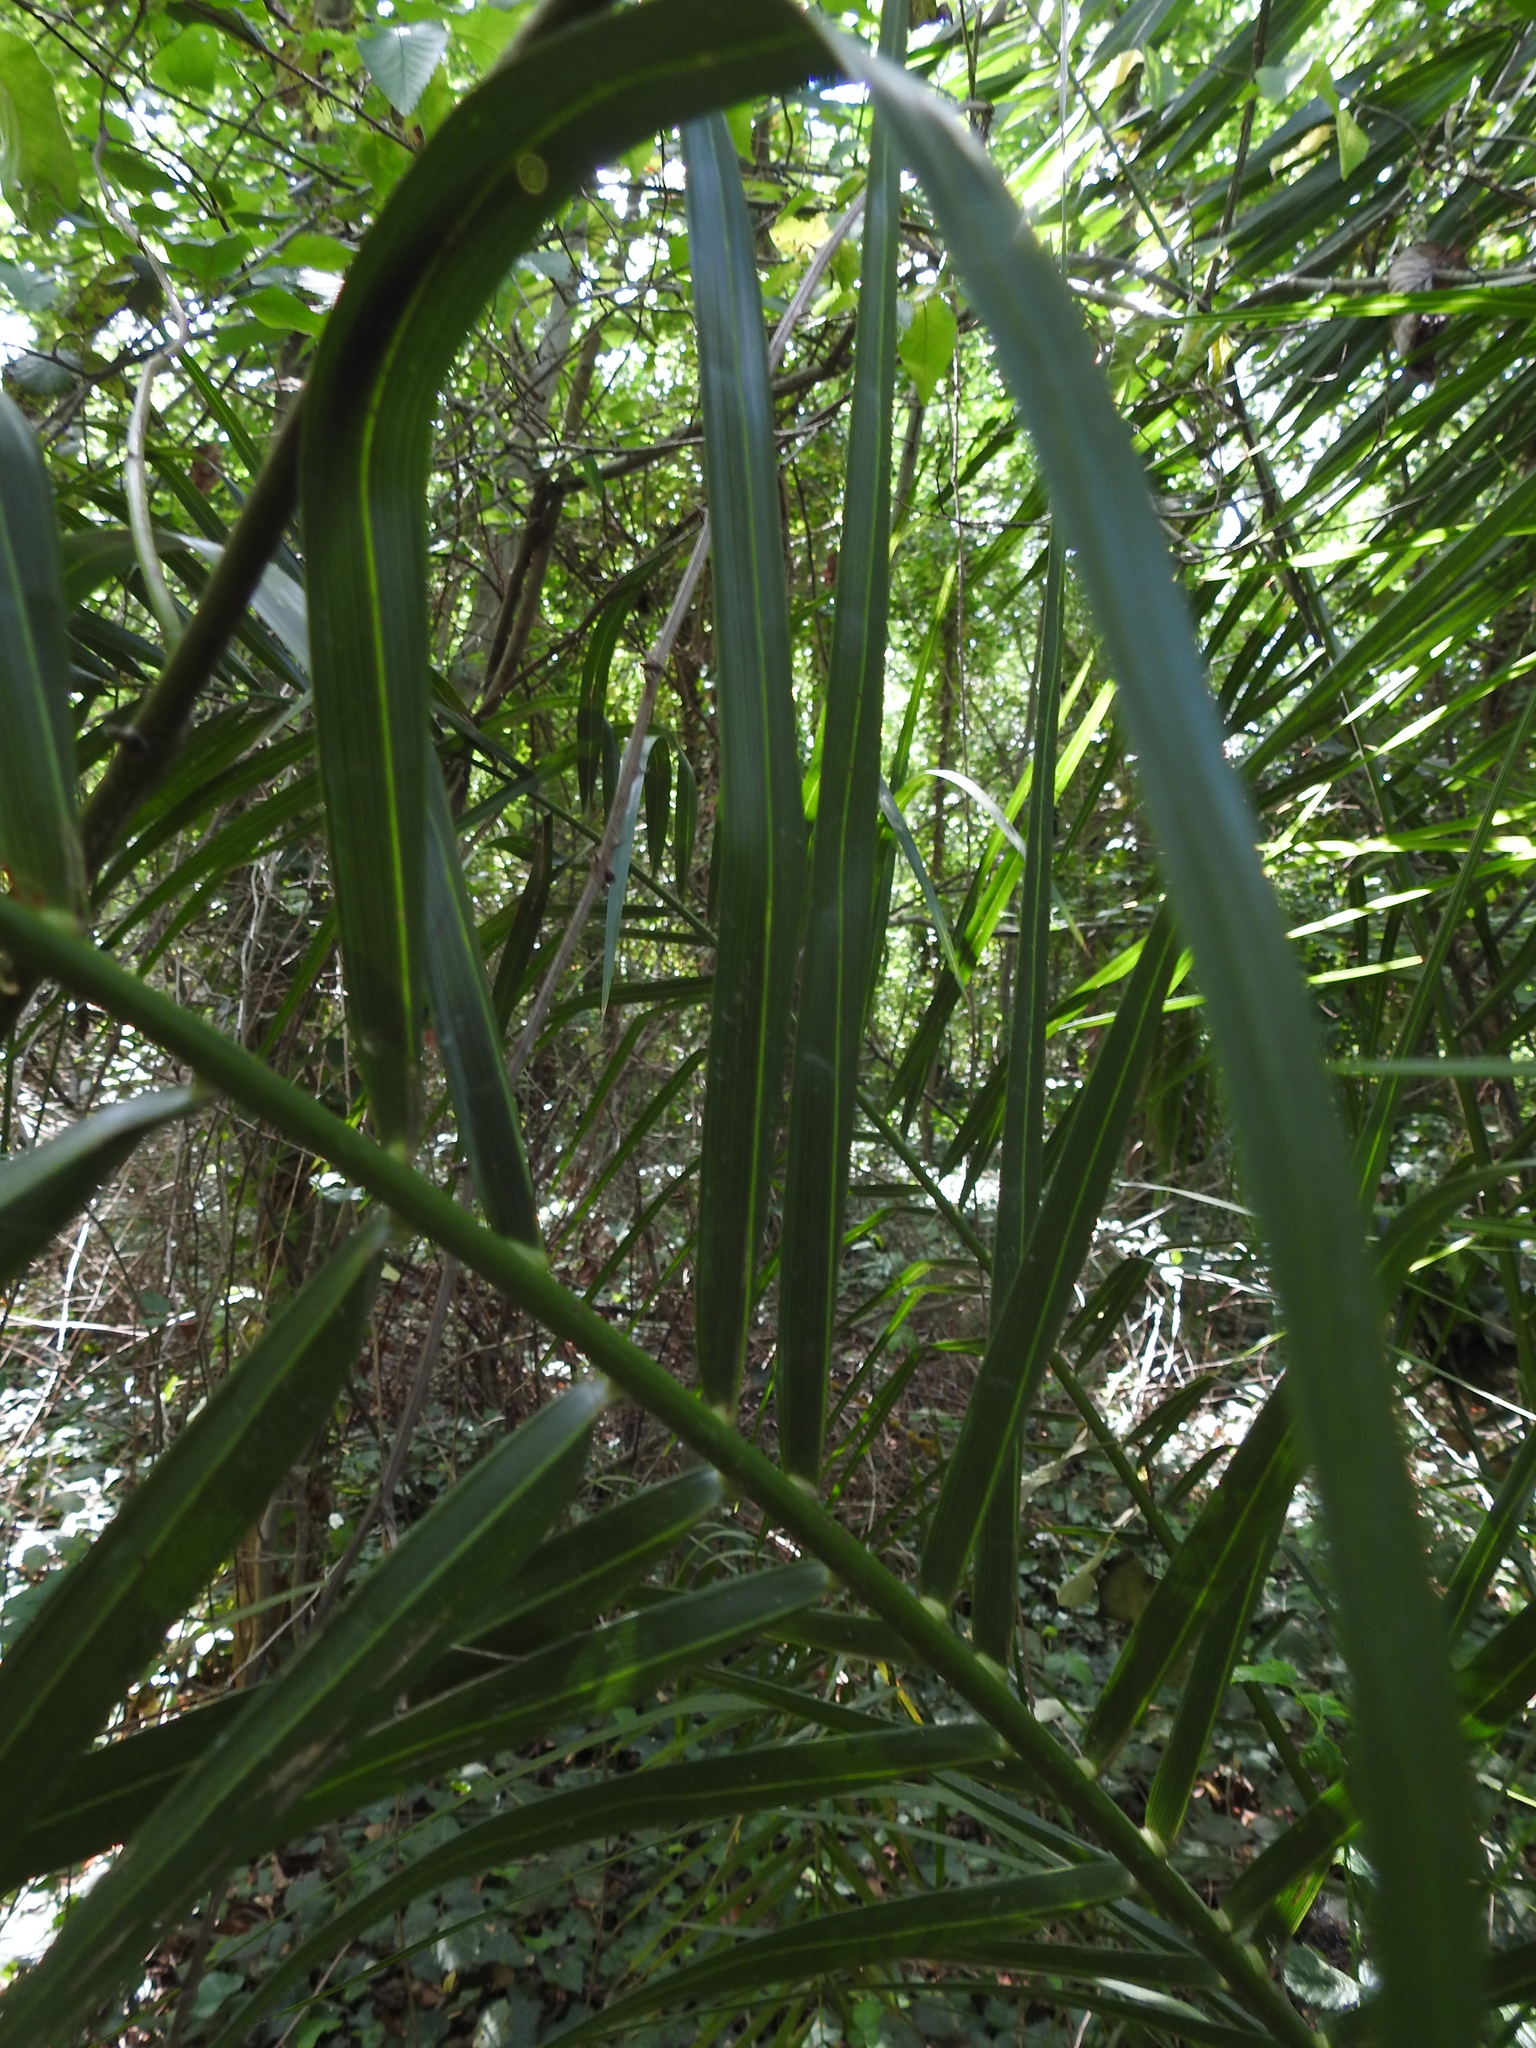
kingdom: Plantae
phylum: Tracheophyta
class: Liliopsida
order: Arecales
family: Arecaceae
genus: Phoenix
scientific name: Phoenix canariensis
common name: Canary island date palm
